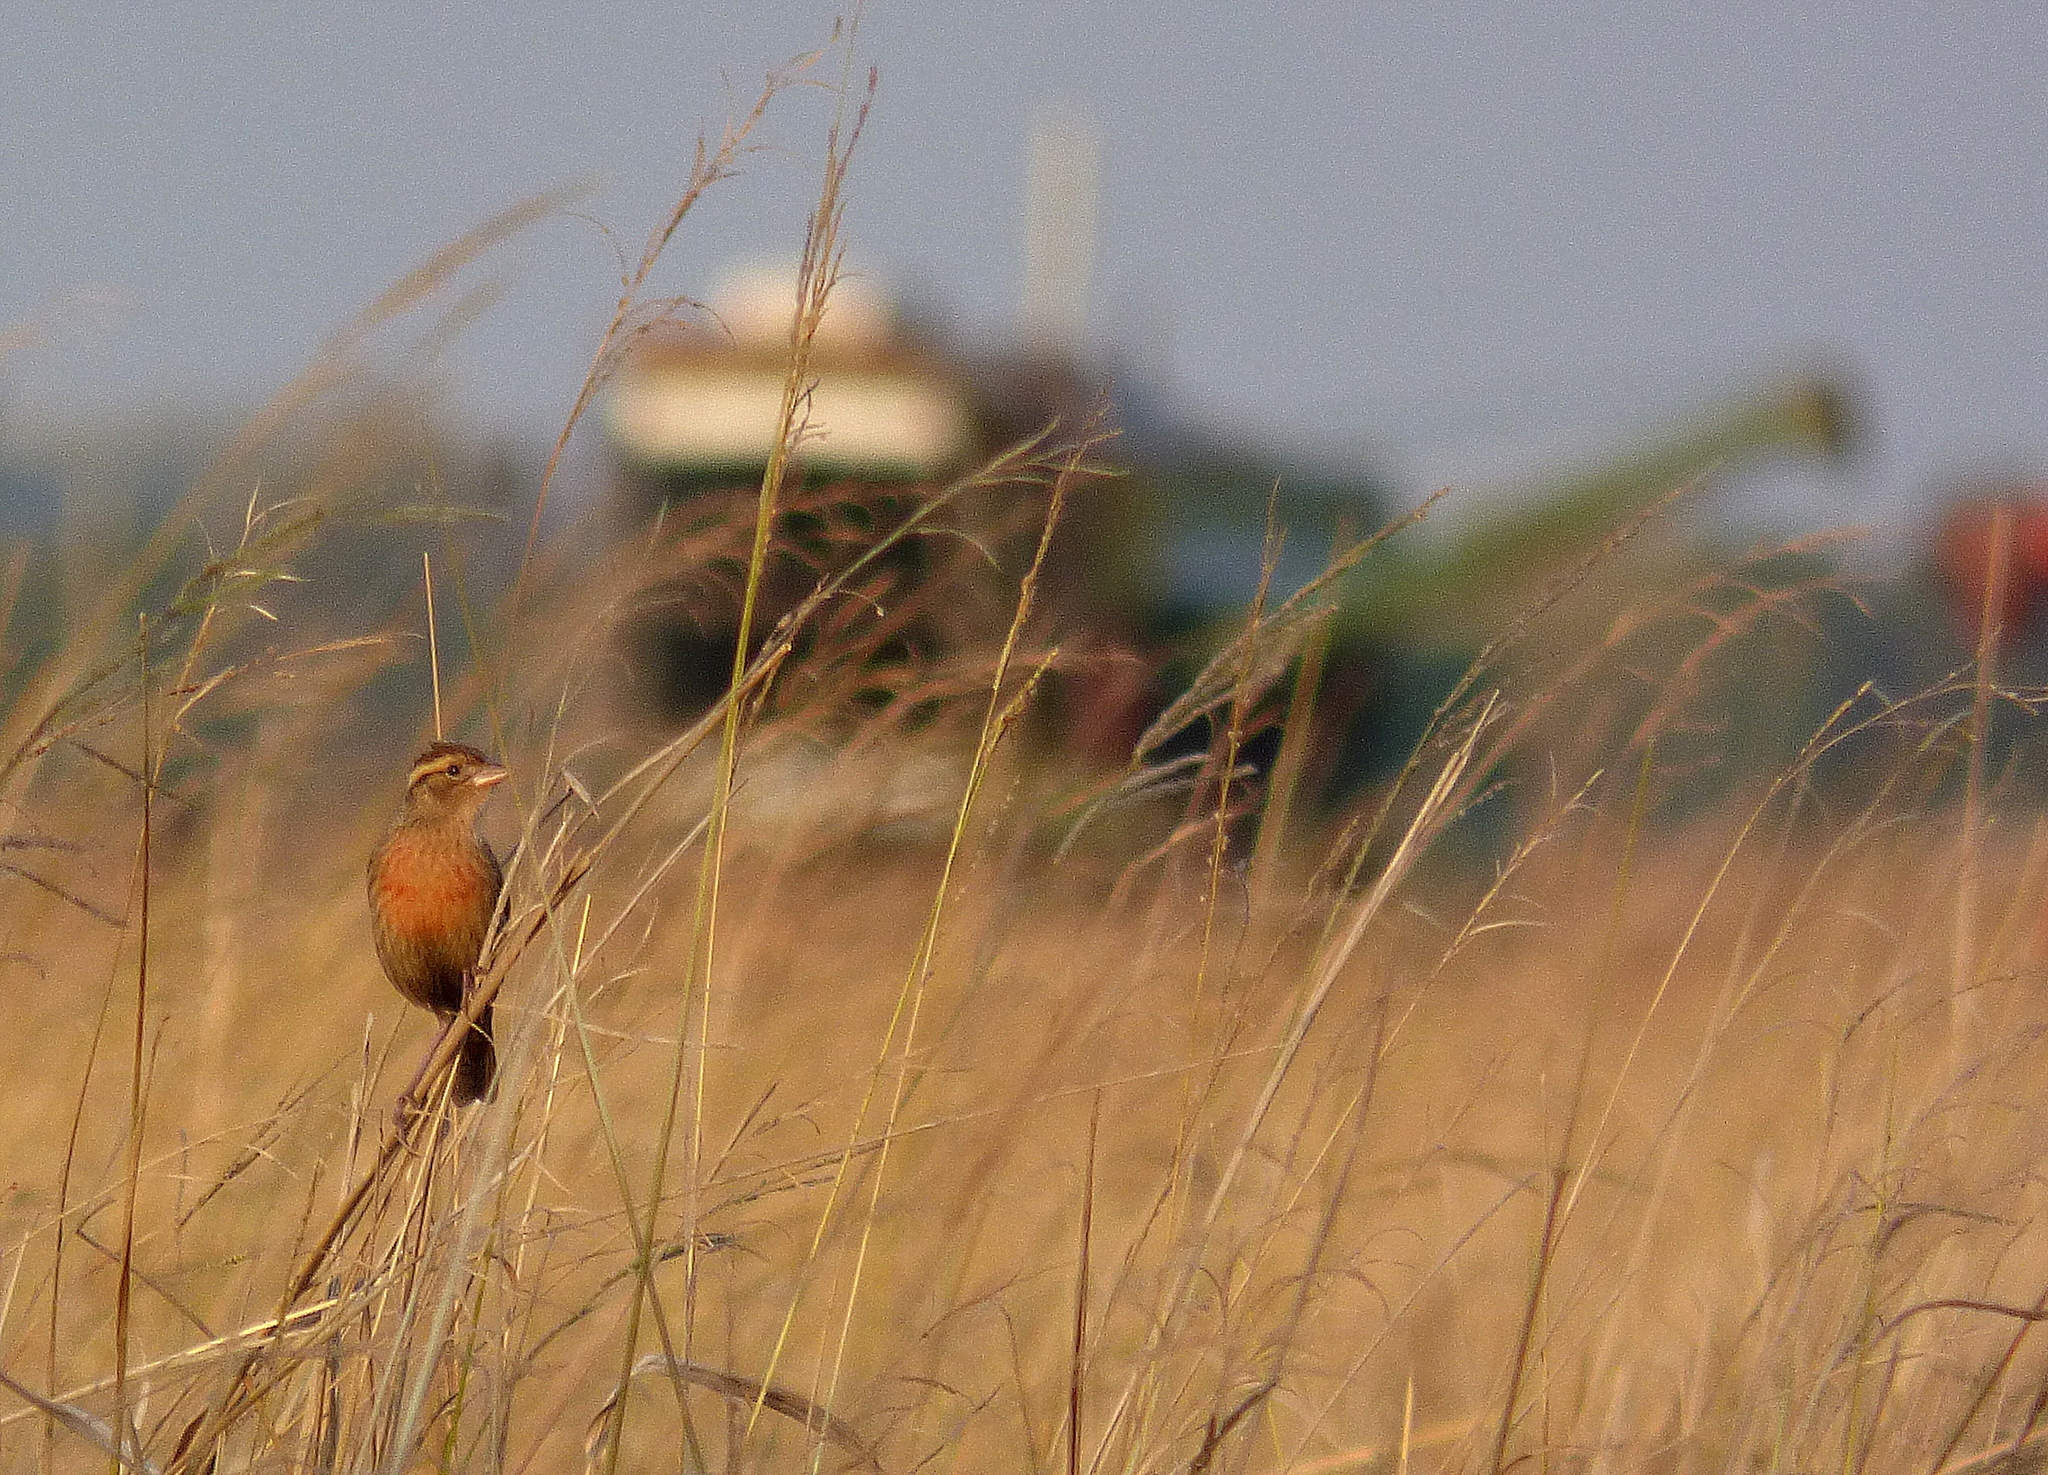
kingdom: Animalia
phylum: Chordata
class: Aves
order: Passeriformes
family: Icteridae
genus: Sturnella
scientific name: Sturnella superciliaris
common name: White-browed blackbird
